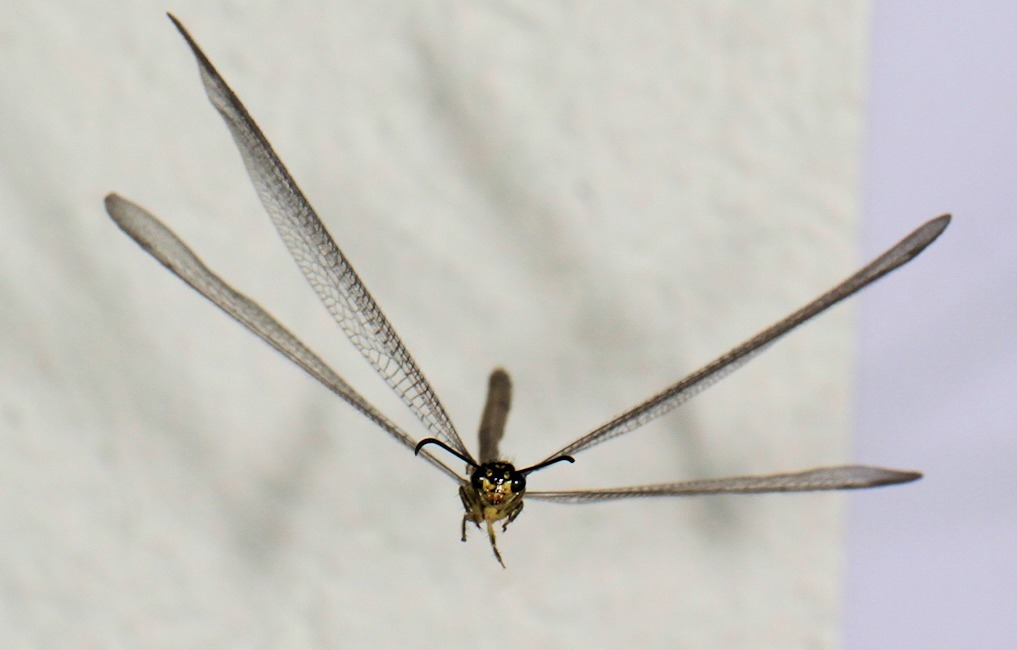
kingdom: Animalia
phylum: Arthropoda
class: Insecta
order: Neuroptera
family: Myrmeleontidae
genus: Hagenomyia
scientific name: Hagenomyia tristis
